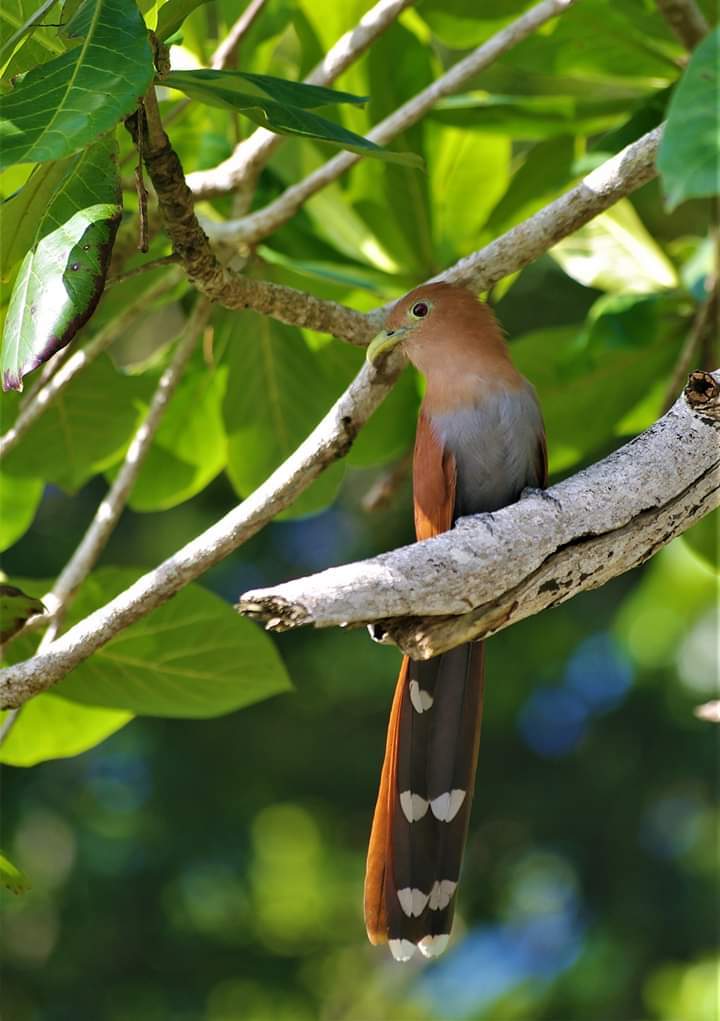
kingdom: Animalia
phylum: Chordata
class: Aves
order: Cuculiformes
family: Cuculidae
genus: Piaya
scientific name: Piaya cayana
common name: Squirrel cuckoo
